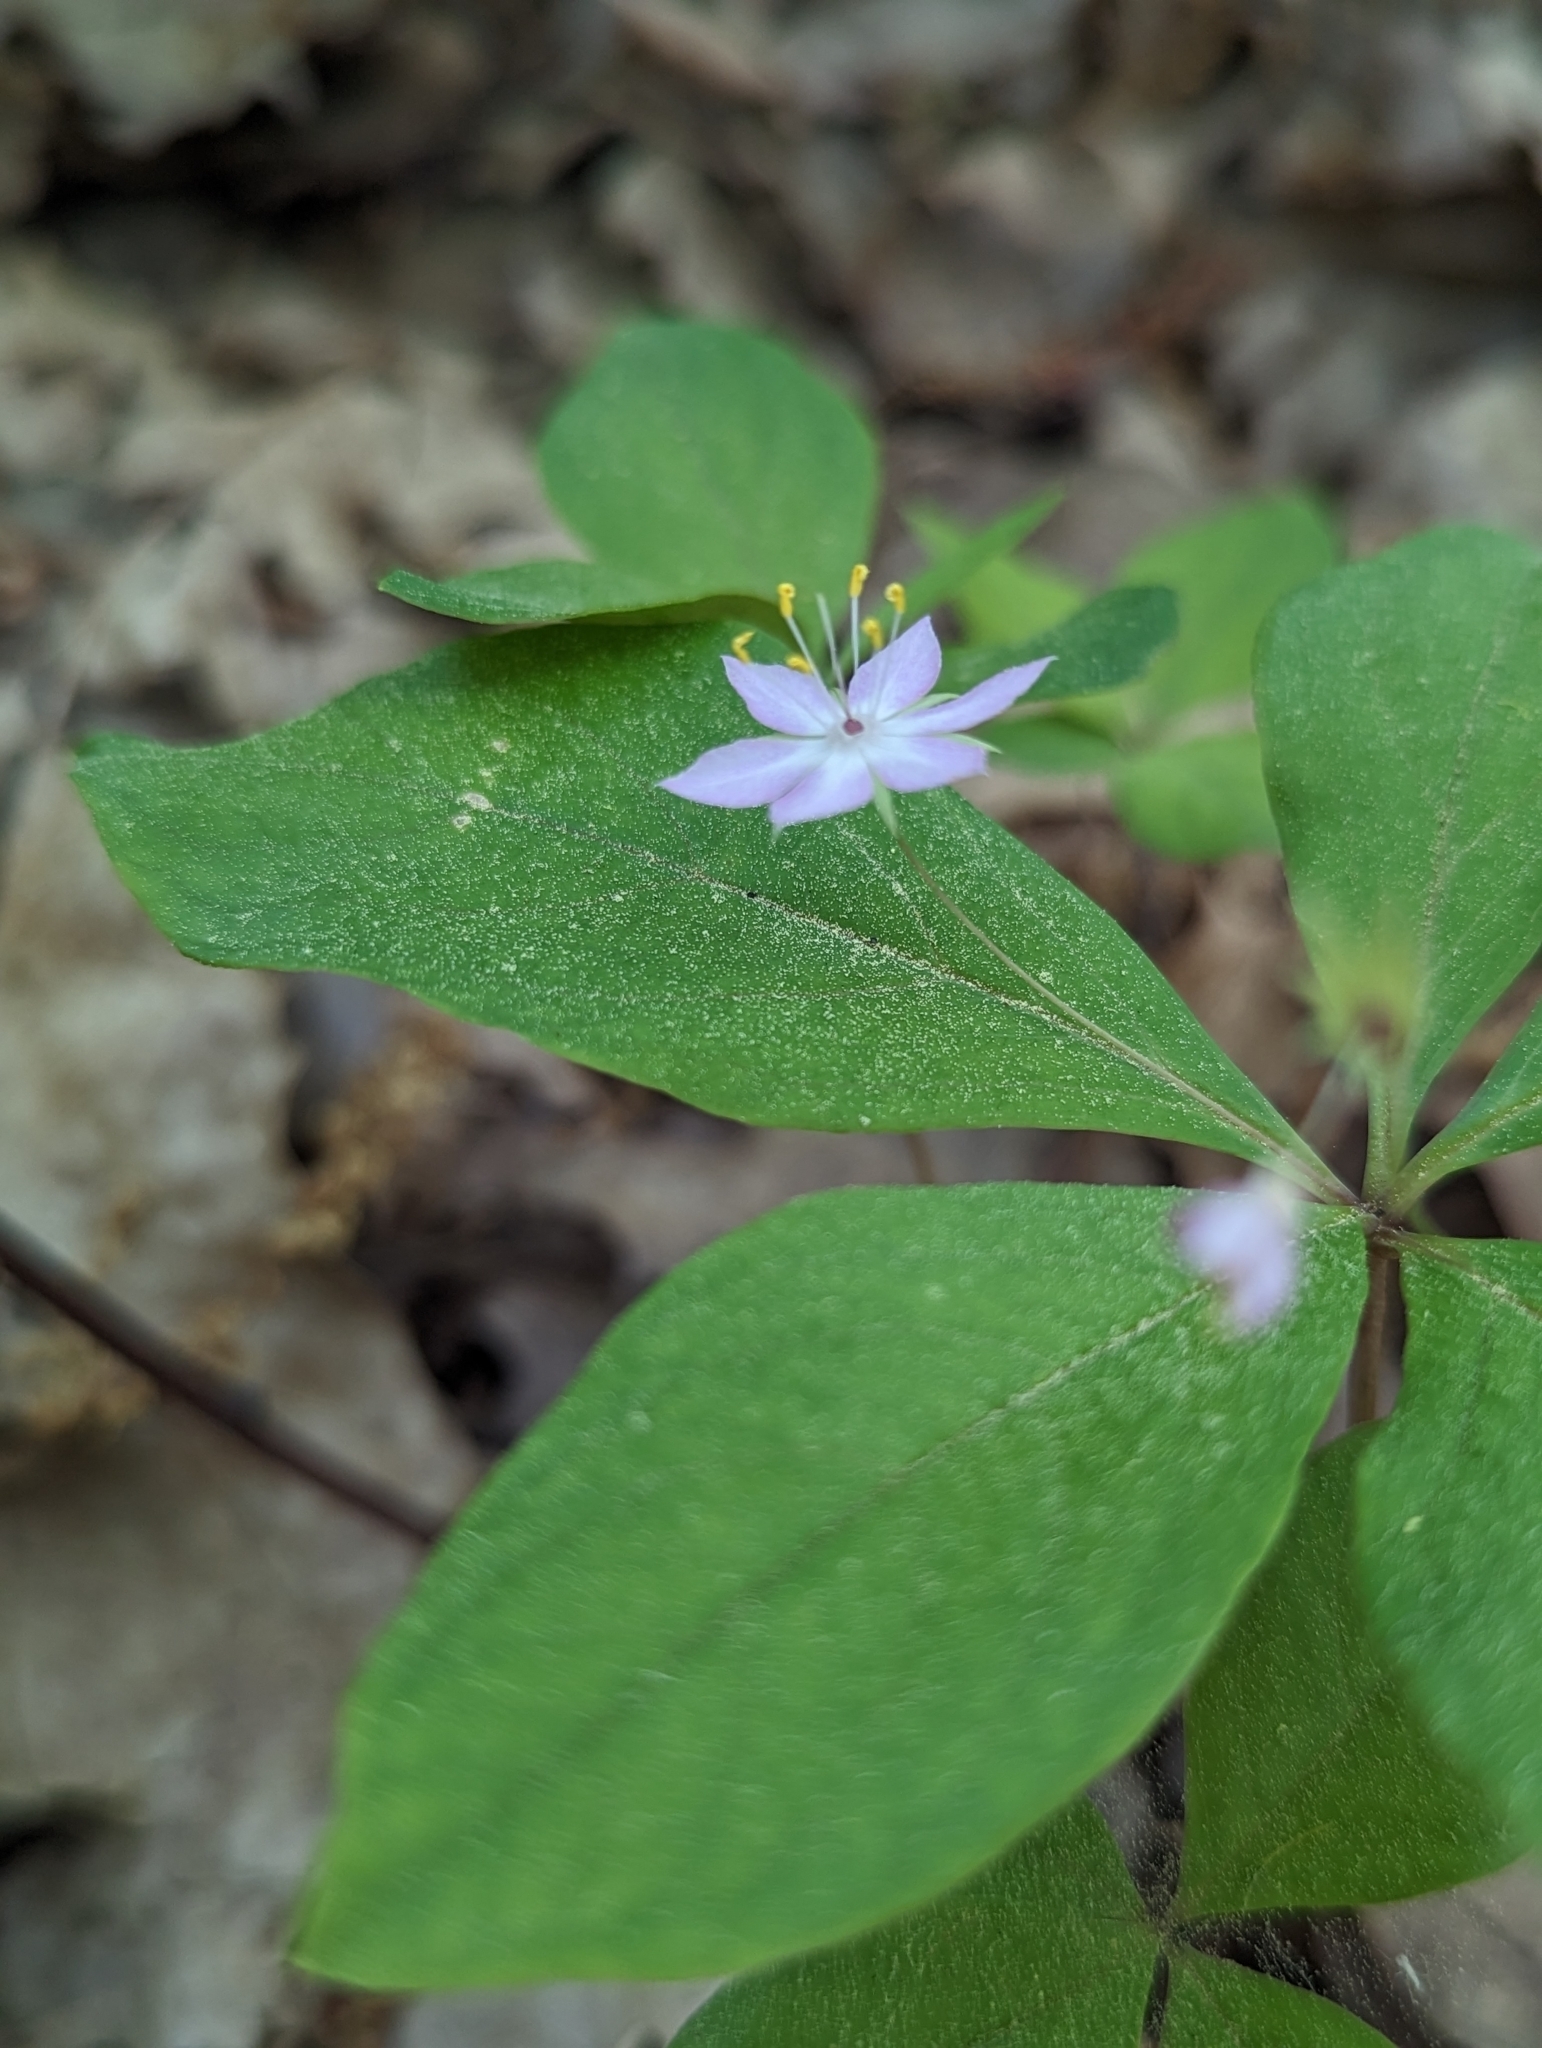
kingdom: Plantae
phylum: Tracheophyta
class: Magnoliopsida
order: Ericales
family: Primulaceae
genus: Lysimachia
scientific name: Lysimachia latifolia
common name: Pacific starflower
